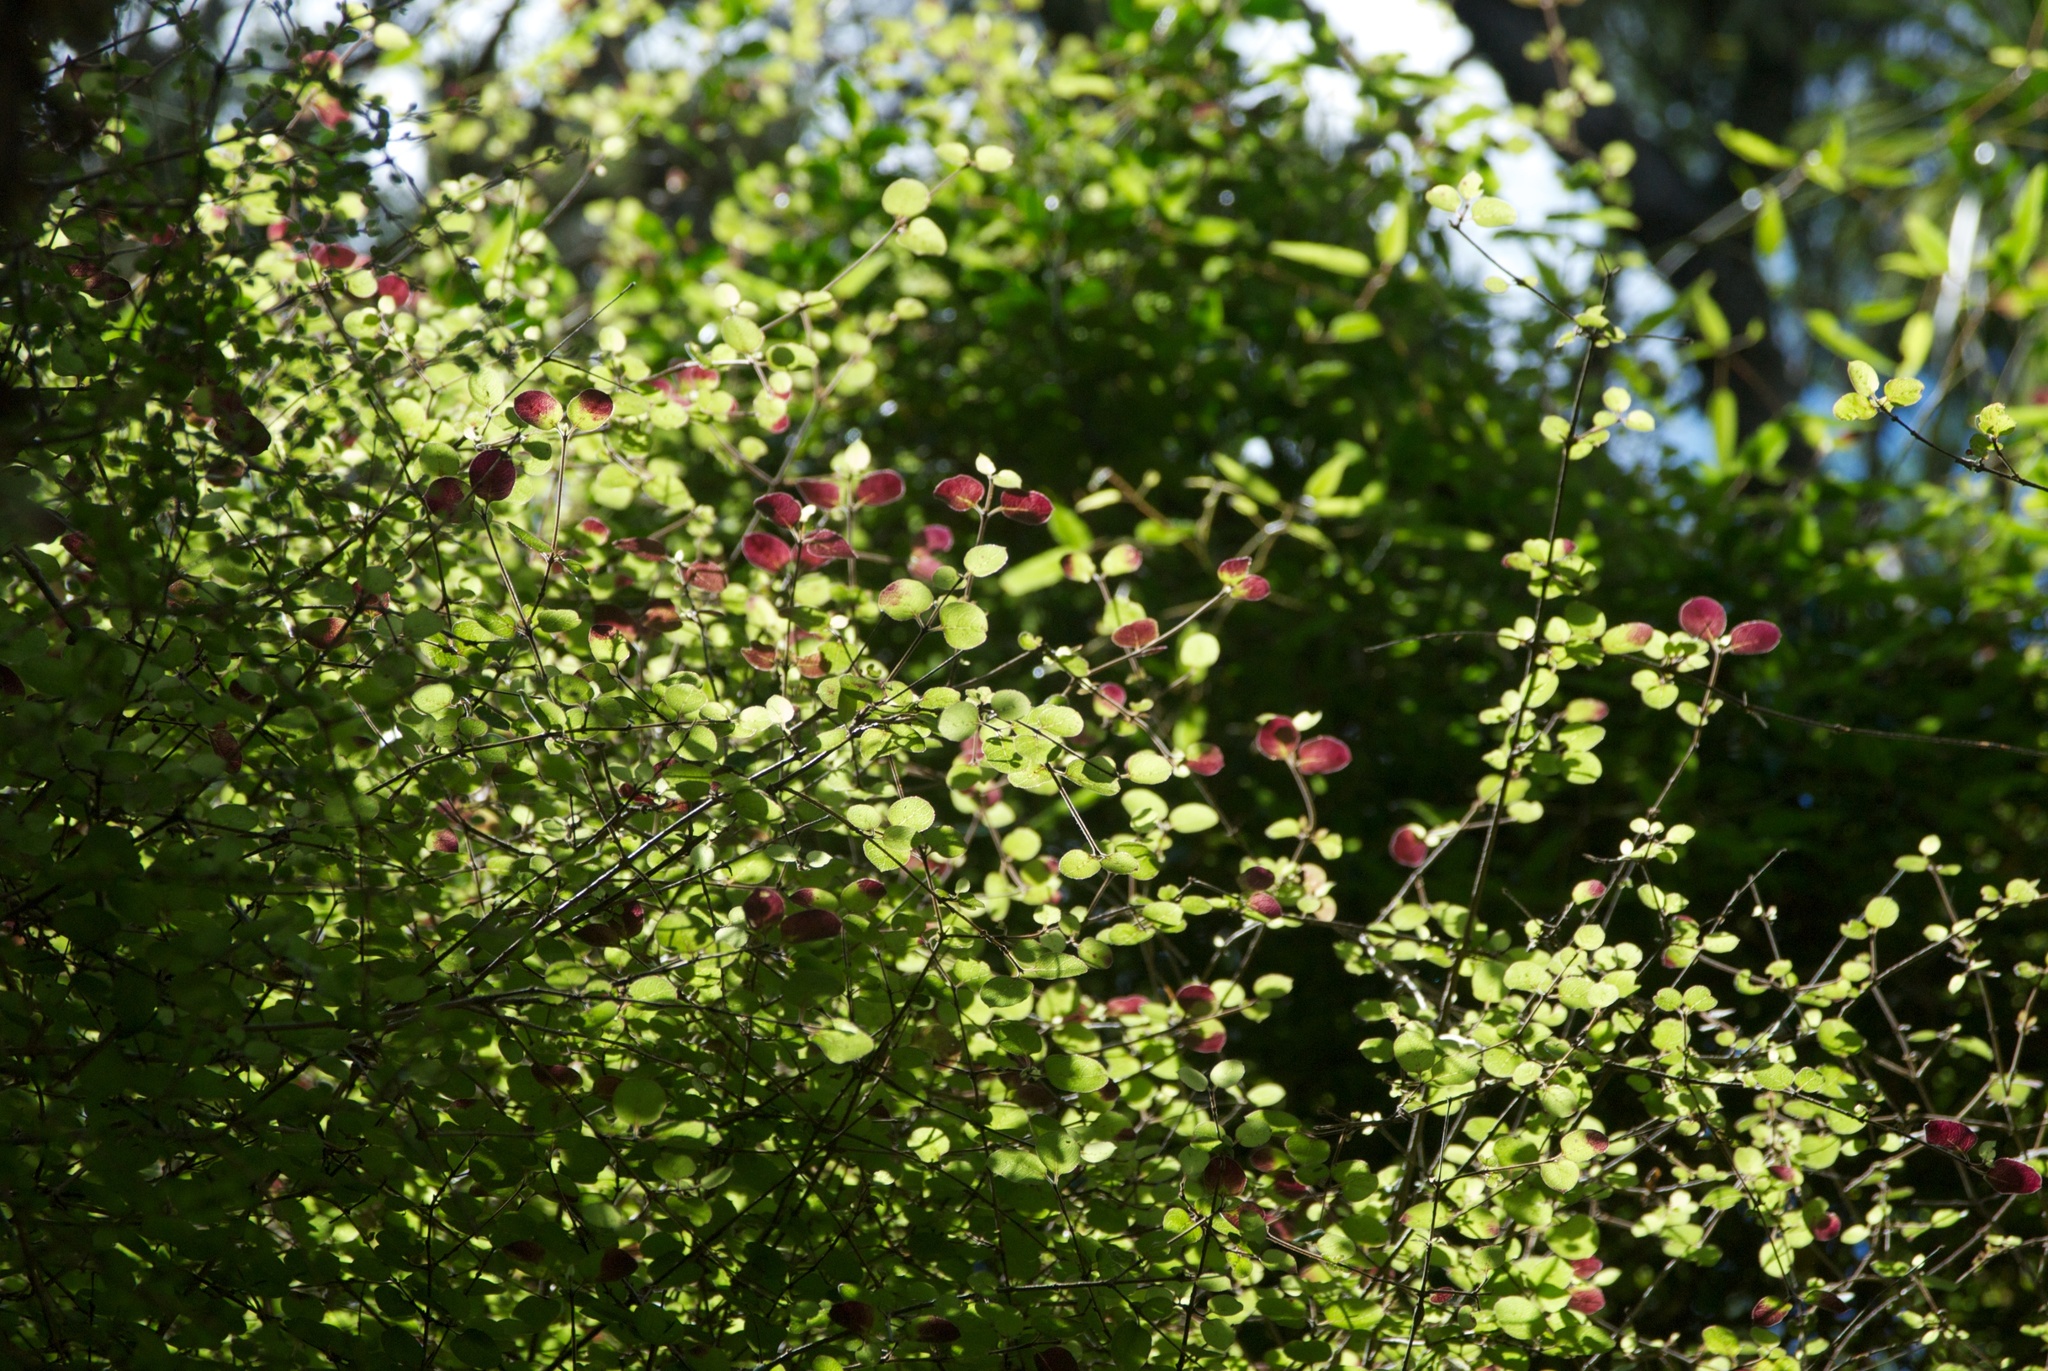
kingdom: Plantae
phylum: Tracheophyta
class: Magnoliopsida
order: Gentianales
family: Rubiaceae
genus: Coprosma
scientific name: Coprosma rotundifolia
